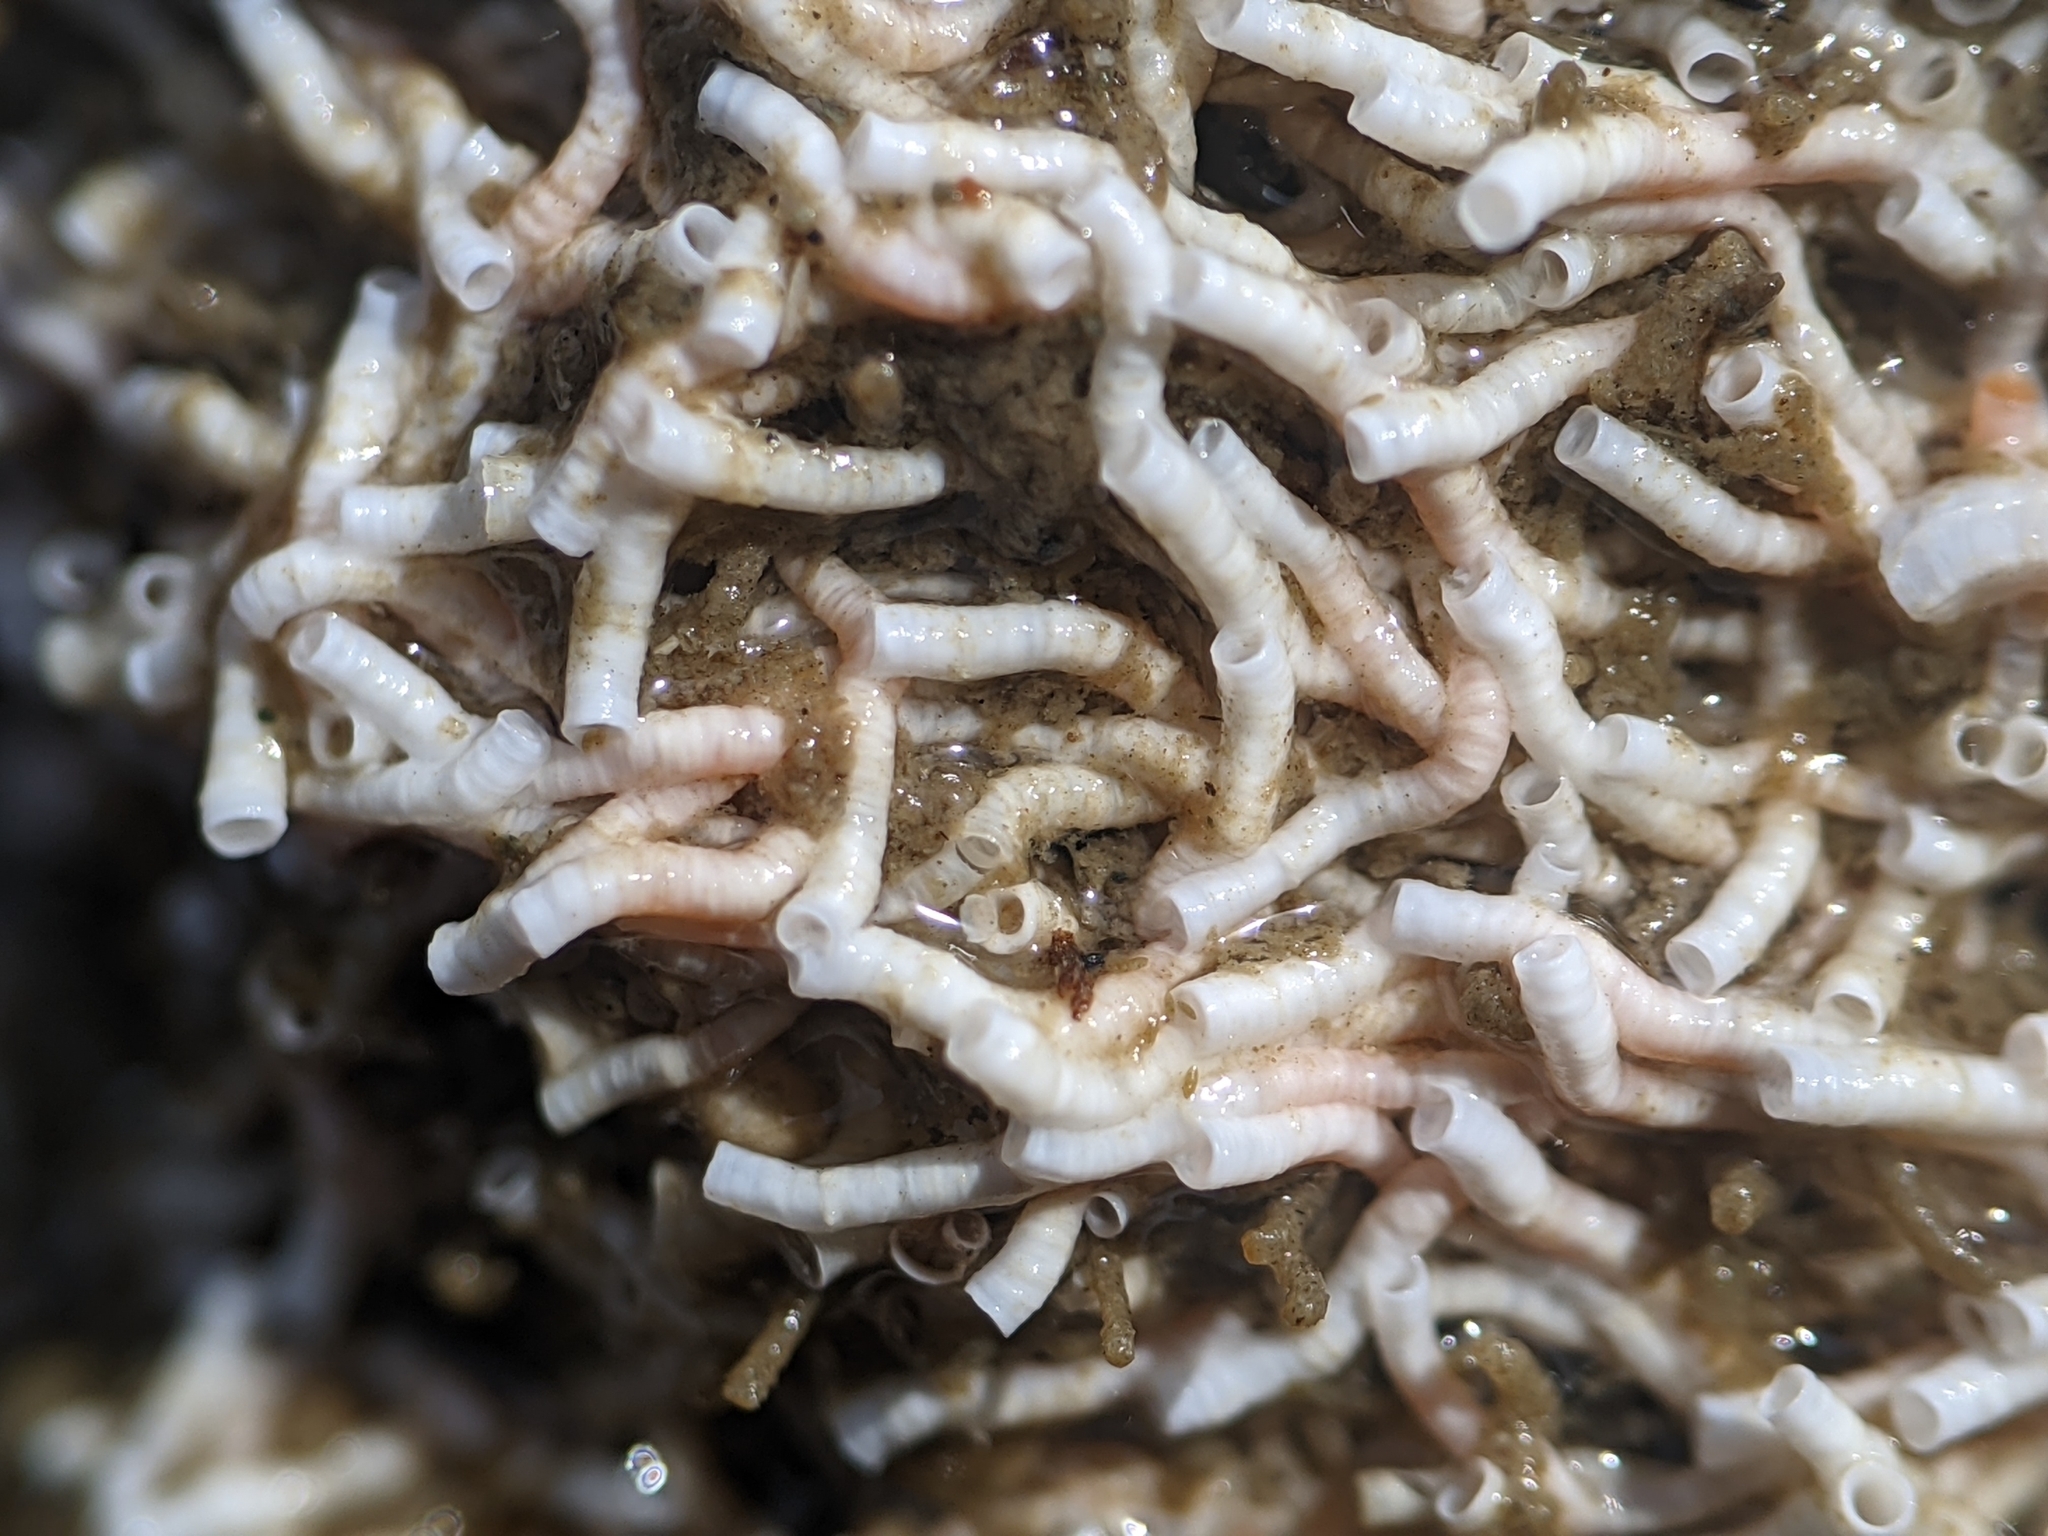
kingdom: Animalia
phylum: Annelida
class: Polychaeta
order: Sabellida
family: Serpulidae
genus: Salmacina
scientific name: Salmacina tribranchiata
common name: Fouling serpulid
